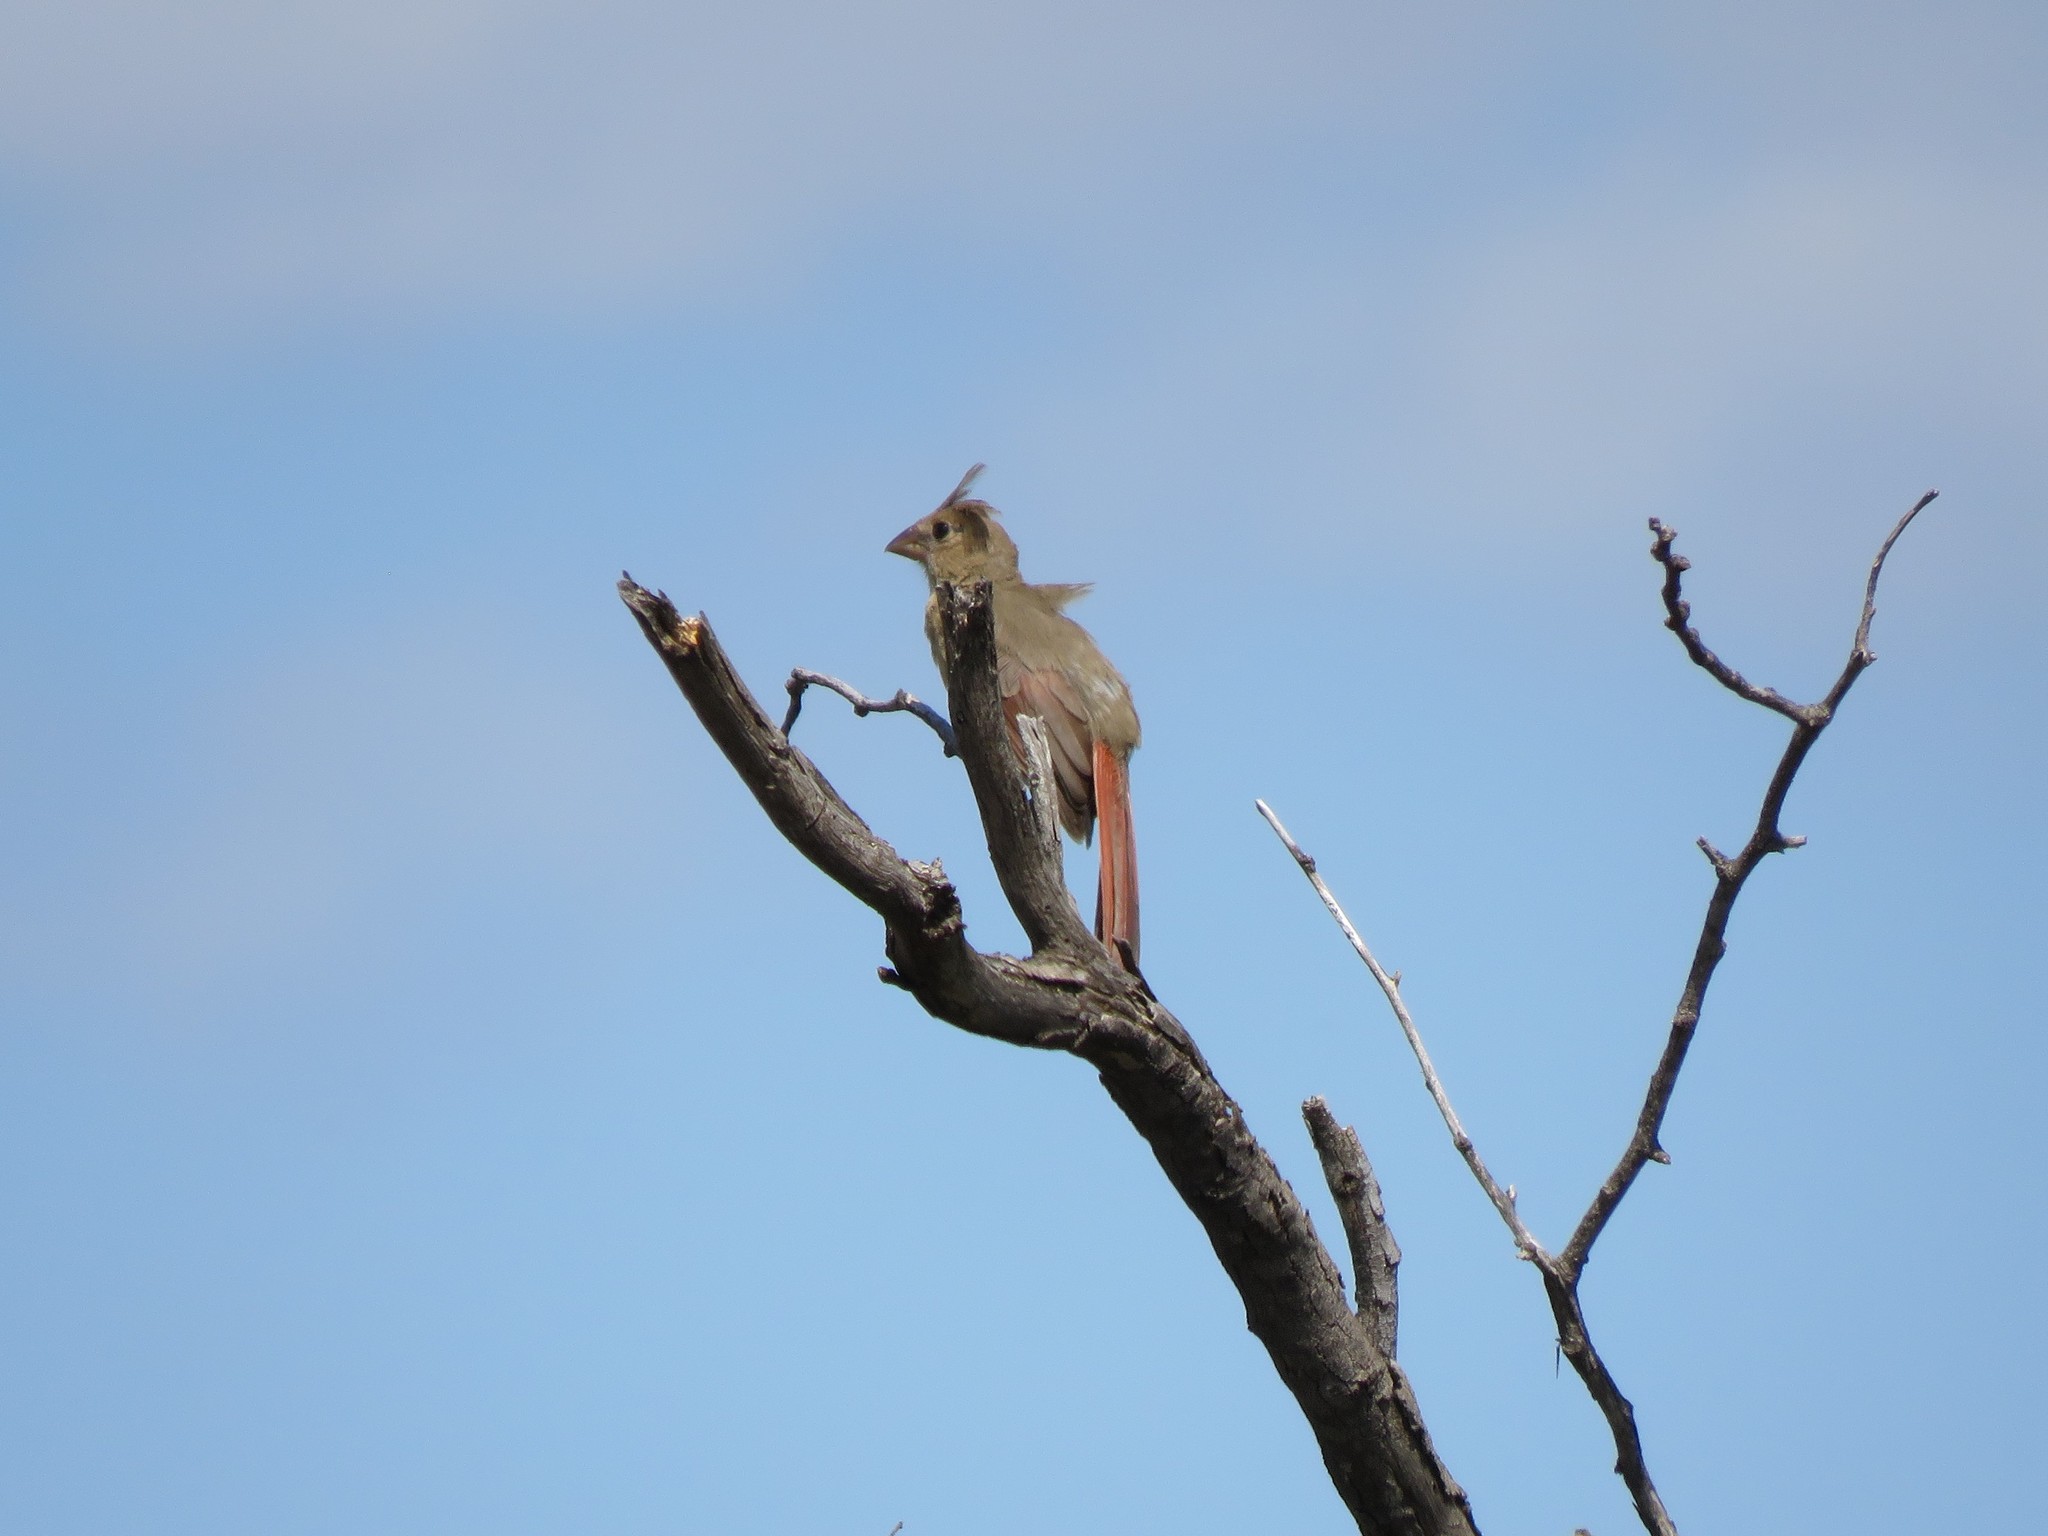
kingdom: Animalia
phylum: Chordata
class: Aves
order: Passeriformes
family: Cardinalidae
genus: Cardinalis
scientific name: Cardinalis cardinalis
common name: Northern cardinal
